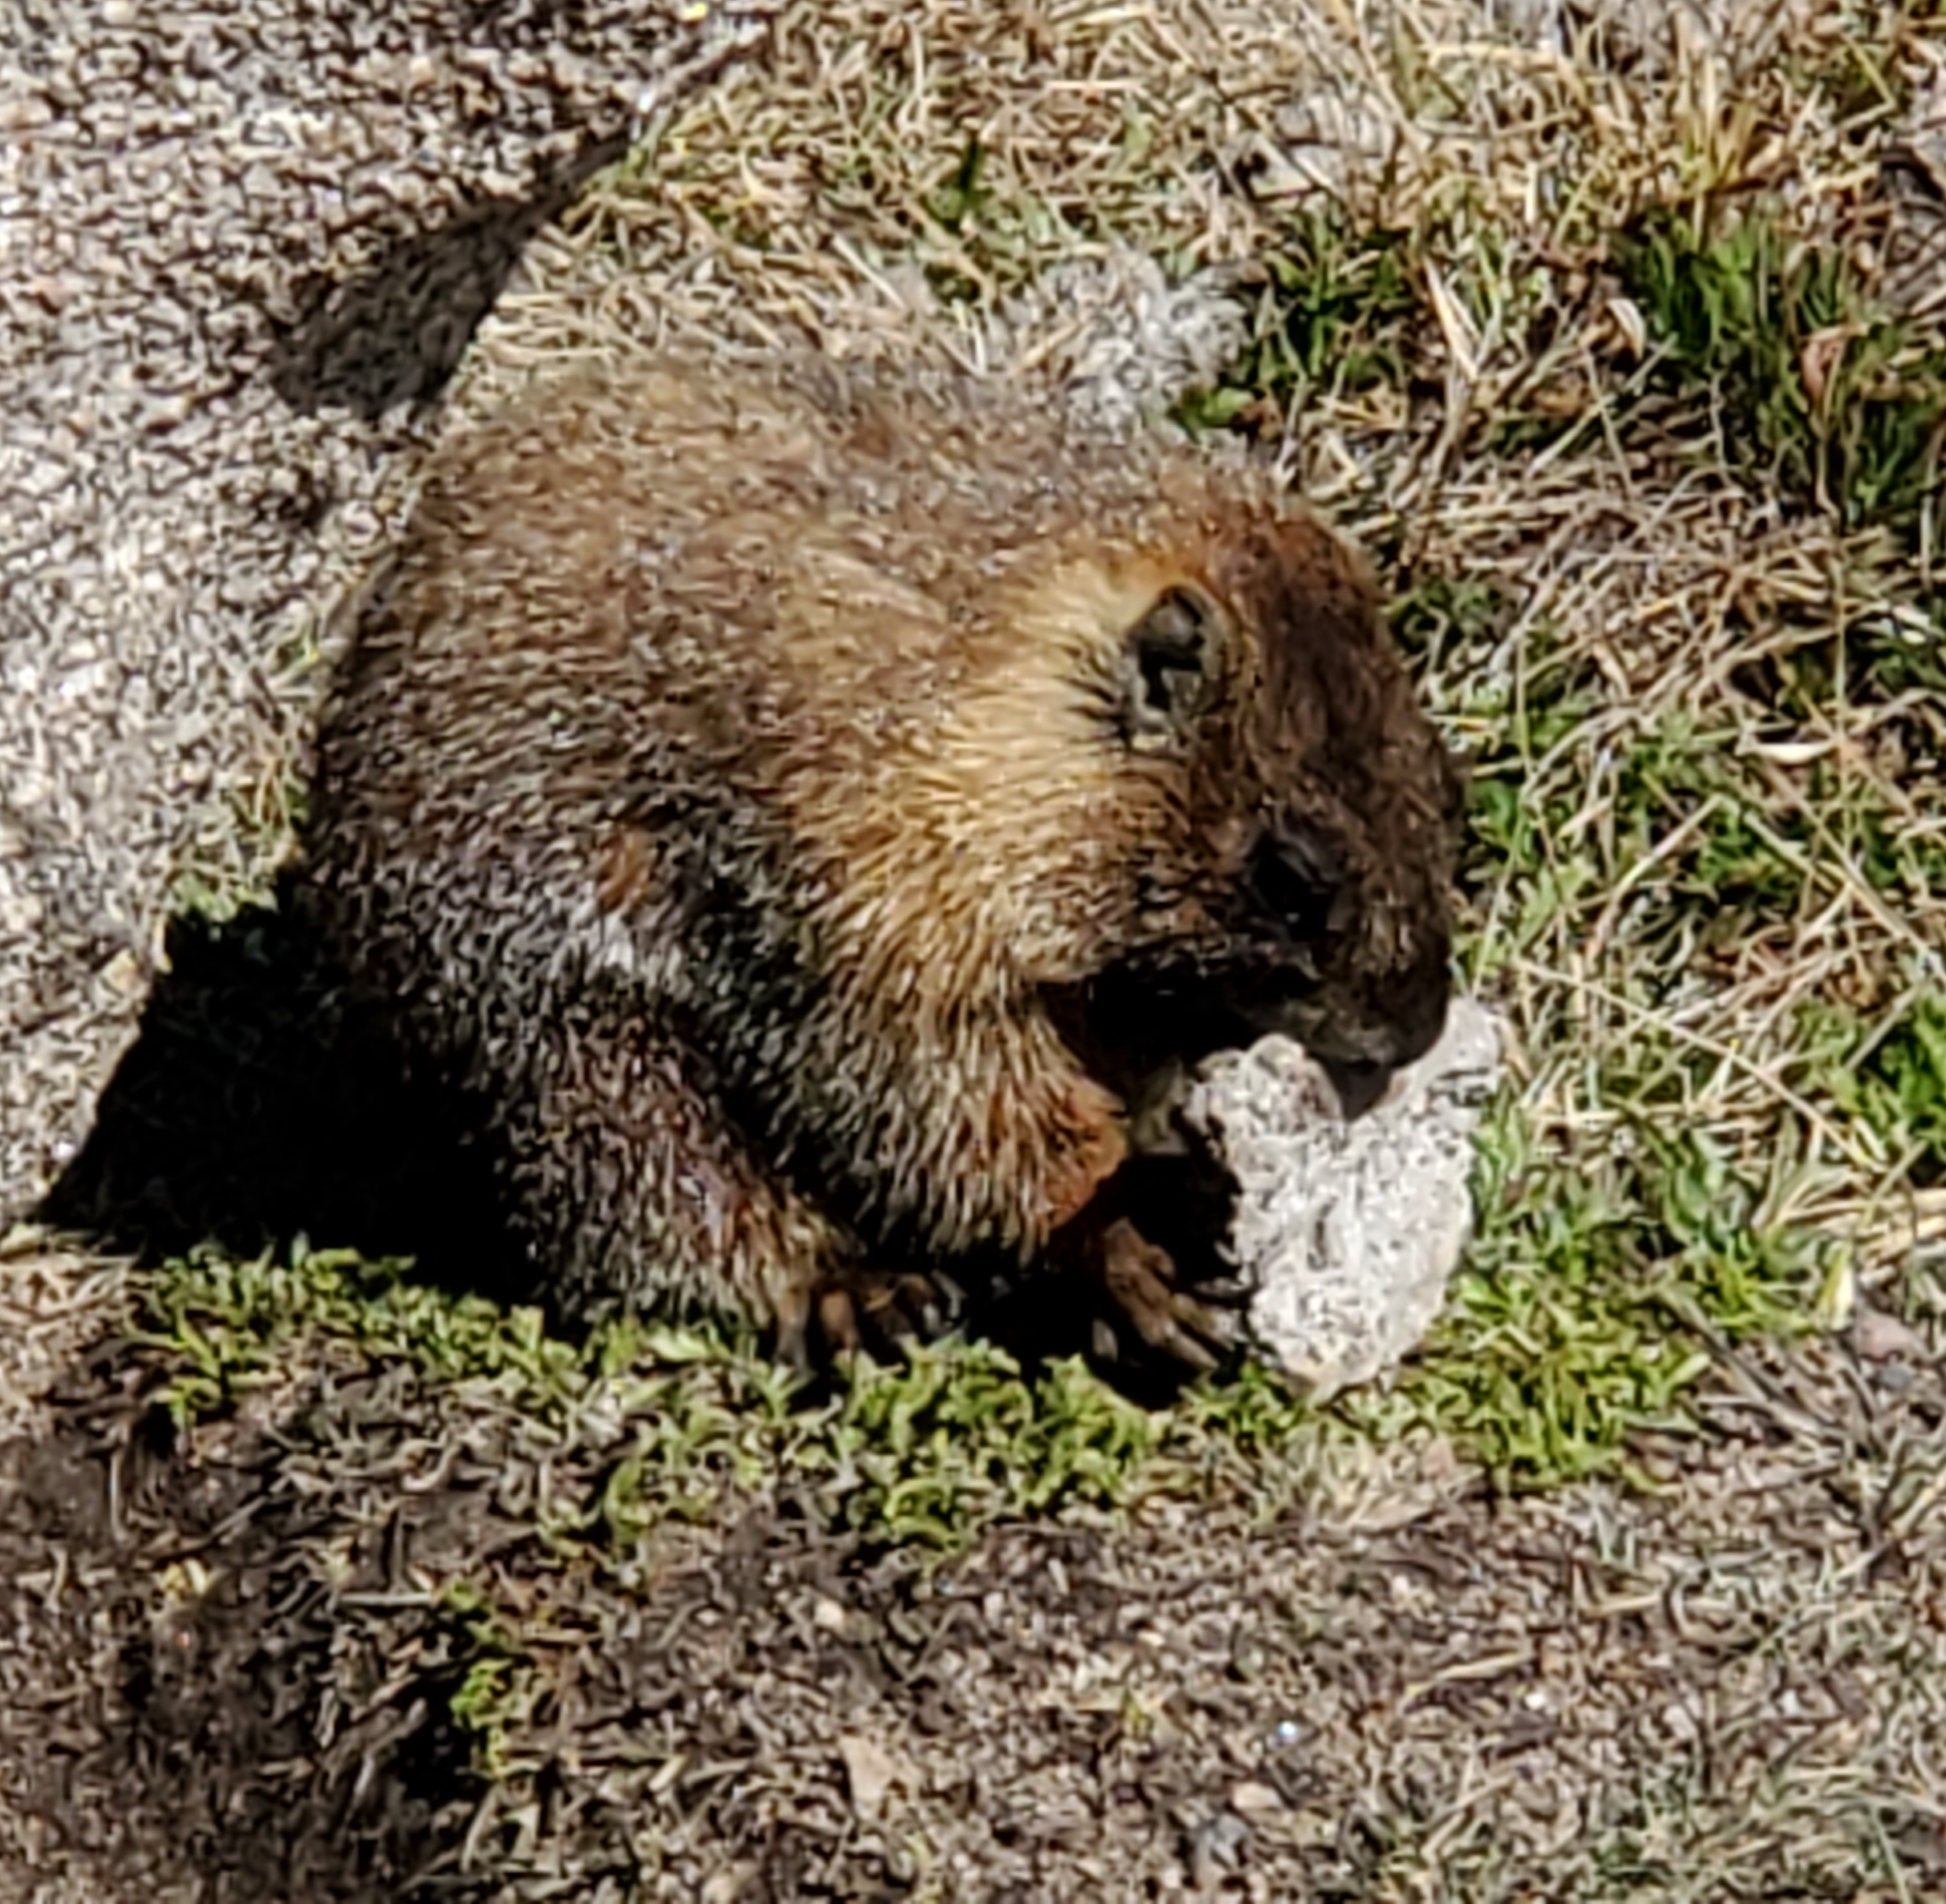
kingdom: Animalia
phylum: Chordata
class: Mammalia
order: Rodentia
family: Sciuridae
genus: Marmota
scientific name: Marmota flaviventris
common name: Yellow-bellied marmot
